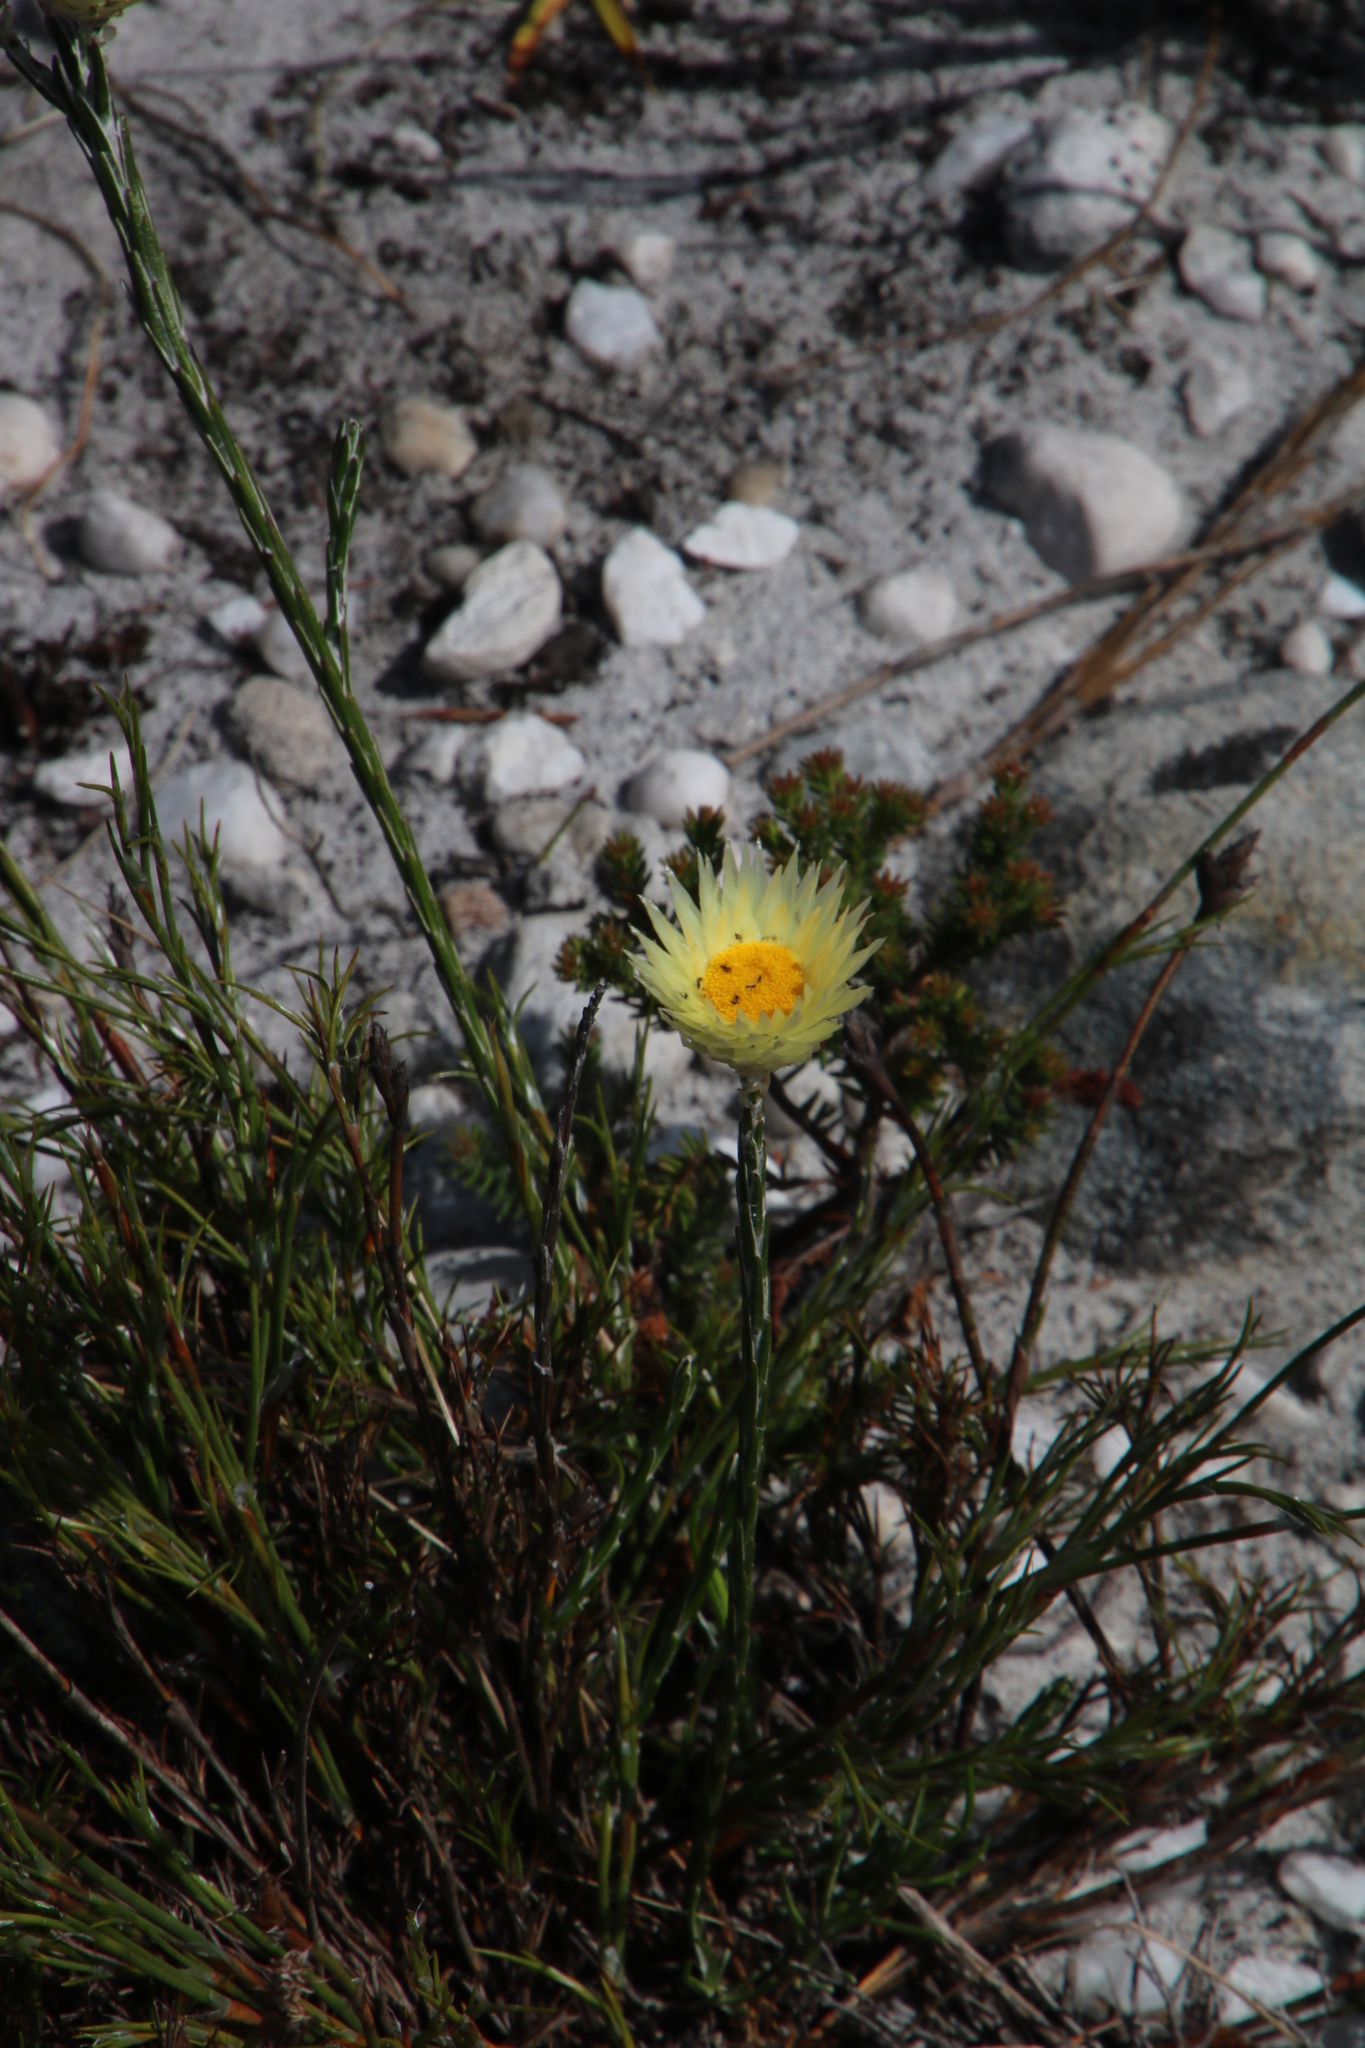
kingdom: Plantae
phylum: Tracheophyta
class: Magnoliopsida
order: Asterales
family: Asteraceae
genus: Edmondia
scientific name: Edmondia sesamoides
